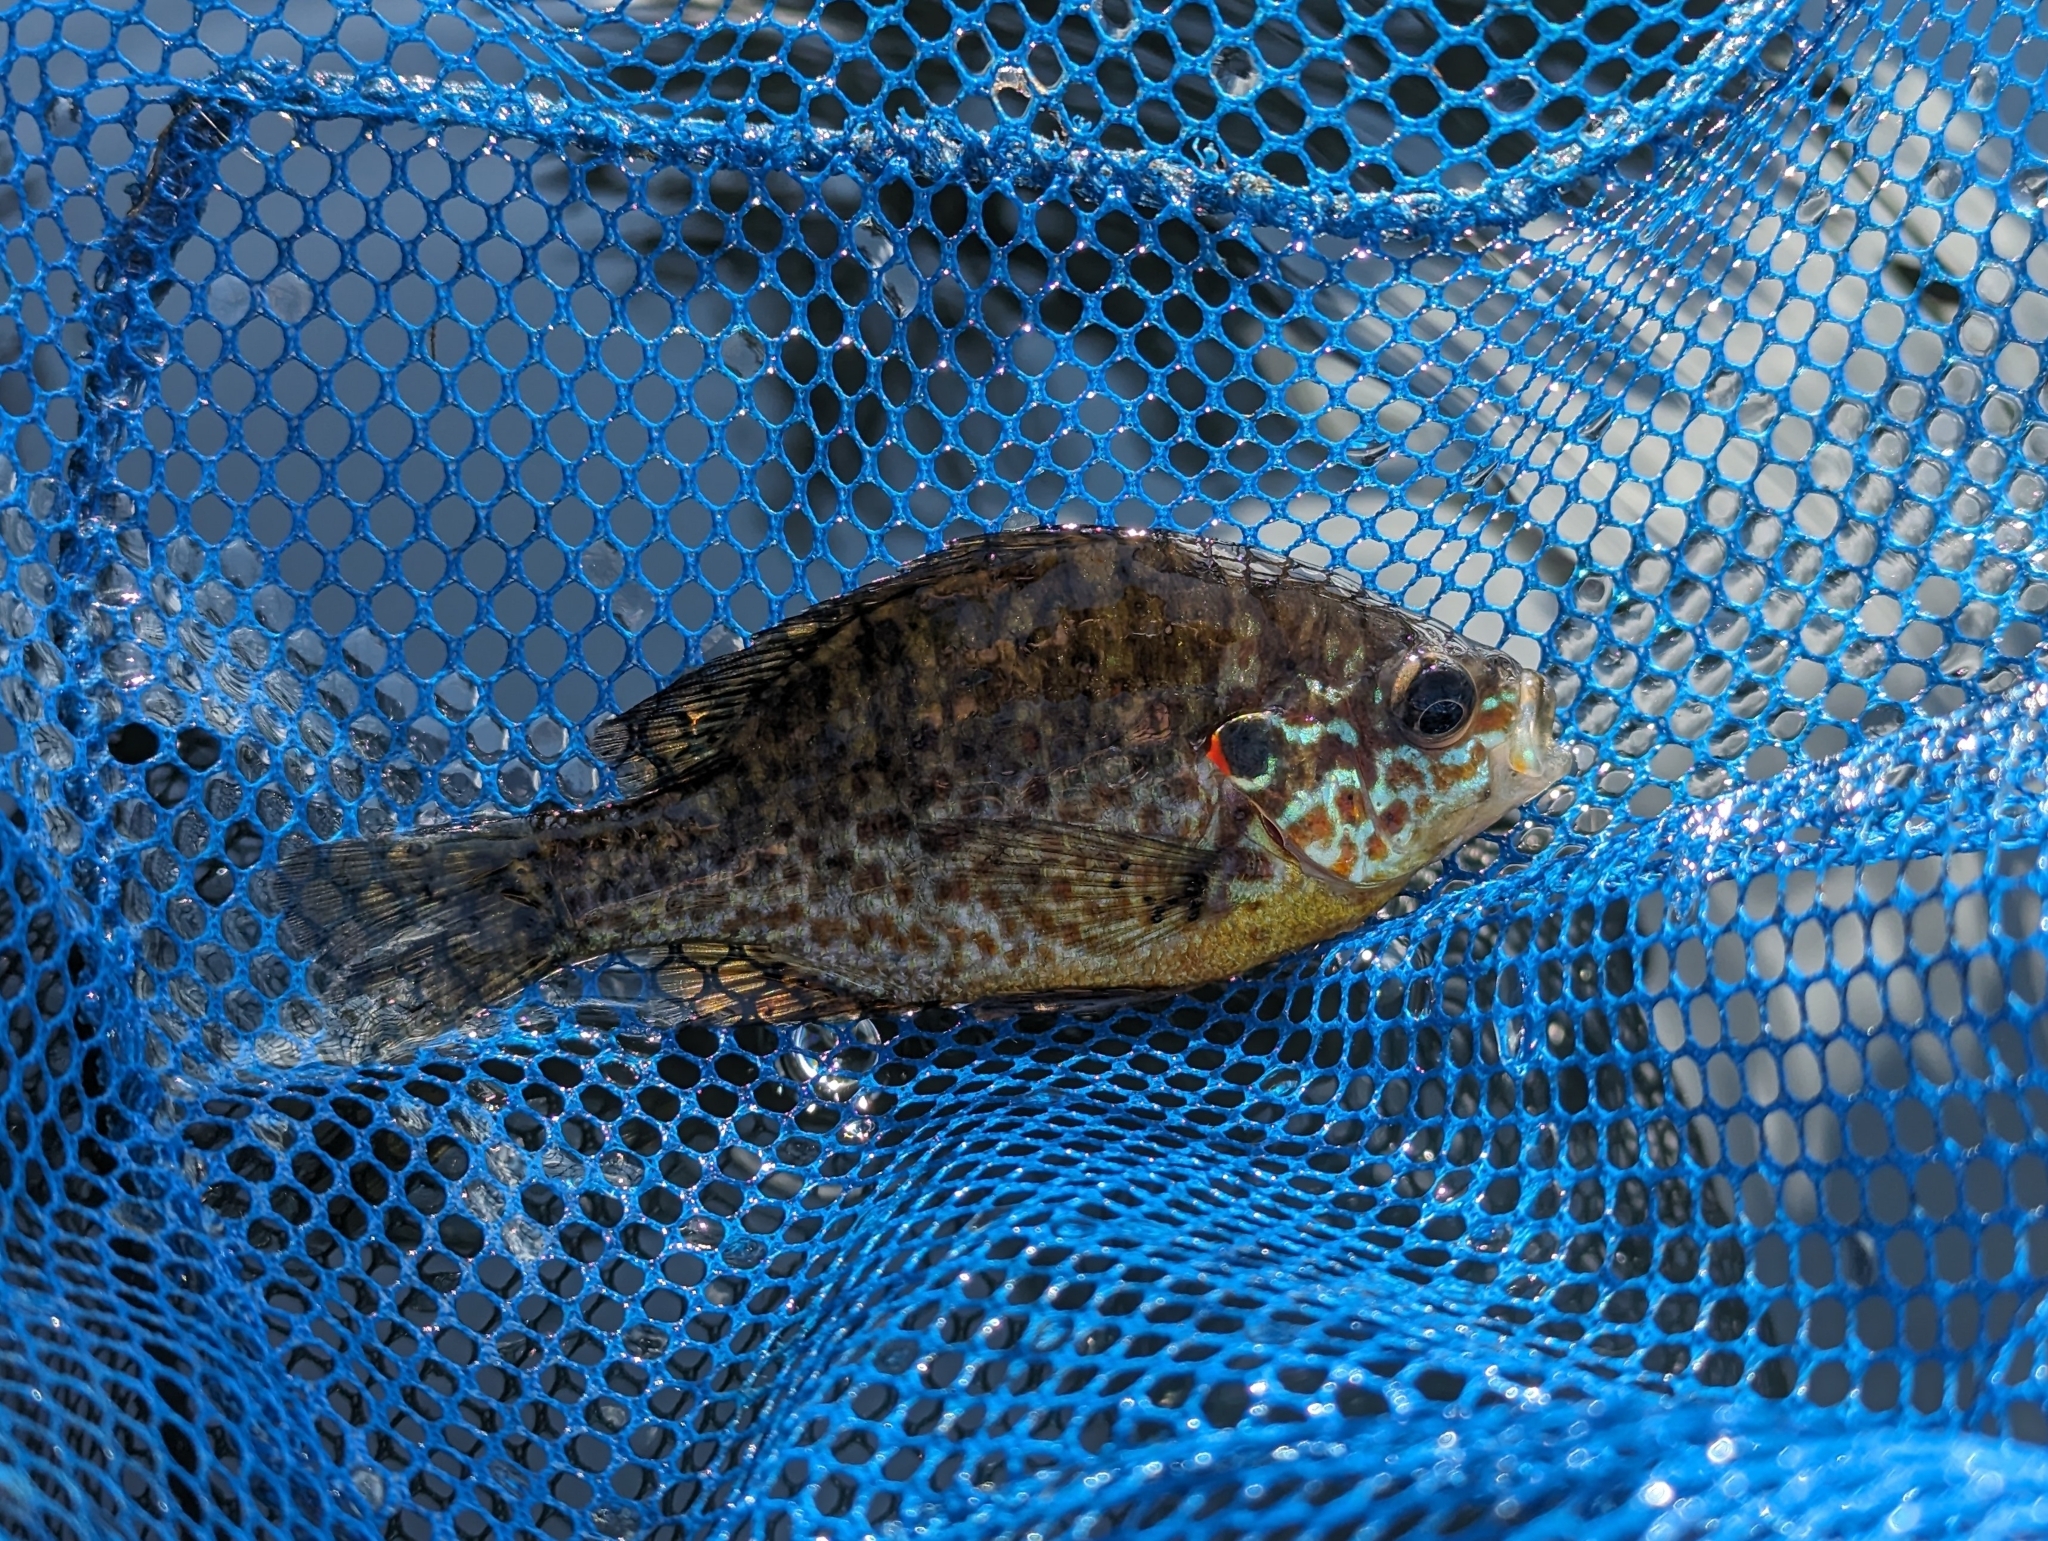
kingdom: Animalia
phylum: Chordata
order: Perciformes
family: Centrarchidae
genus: Lepomis
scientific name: Lepomis gibbosus
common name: Pumpkinseed
